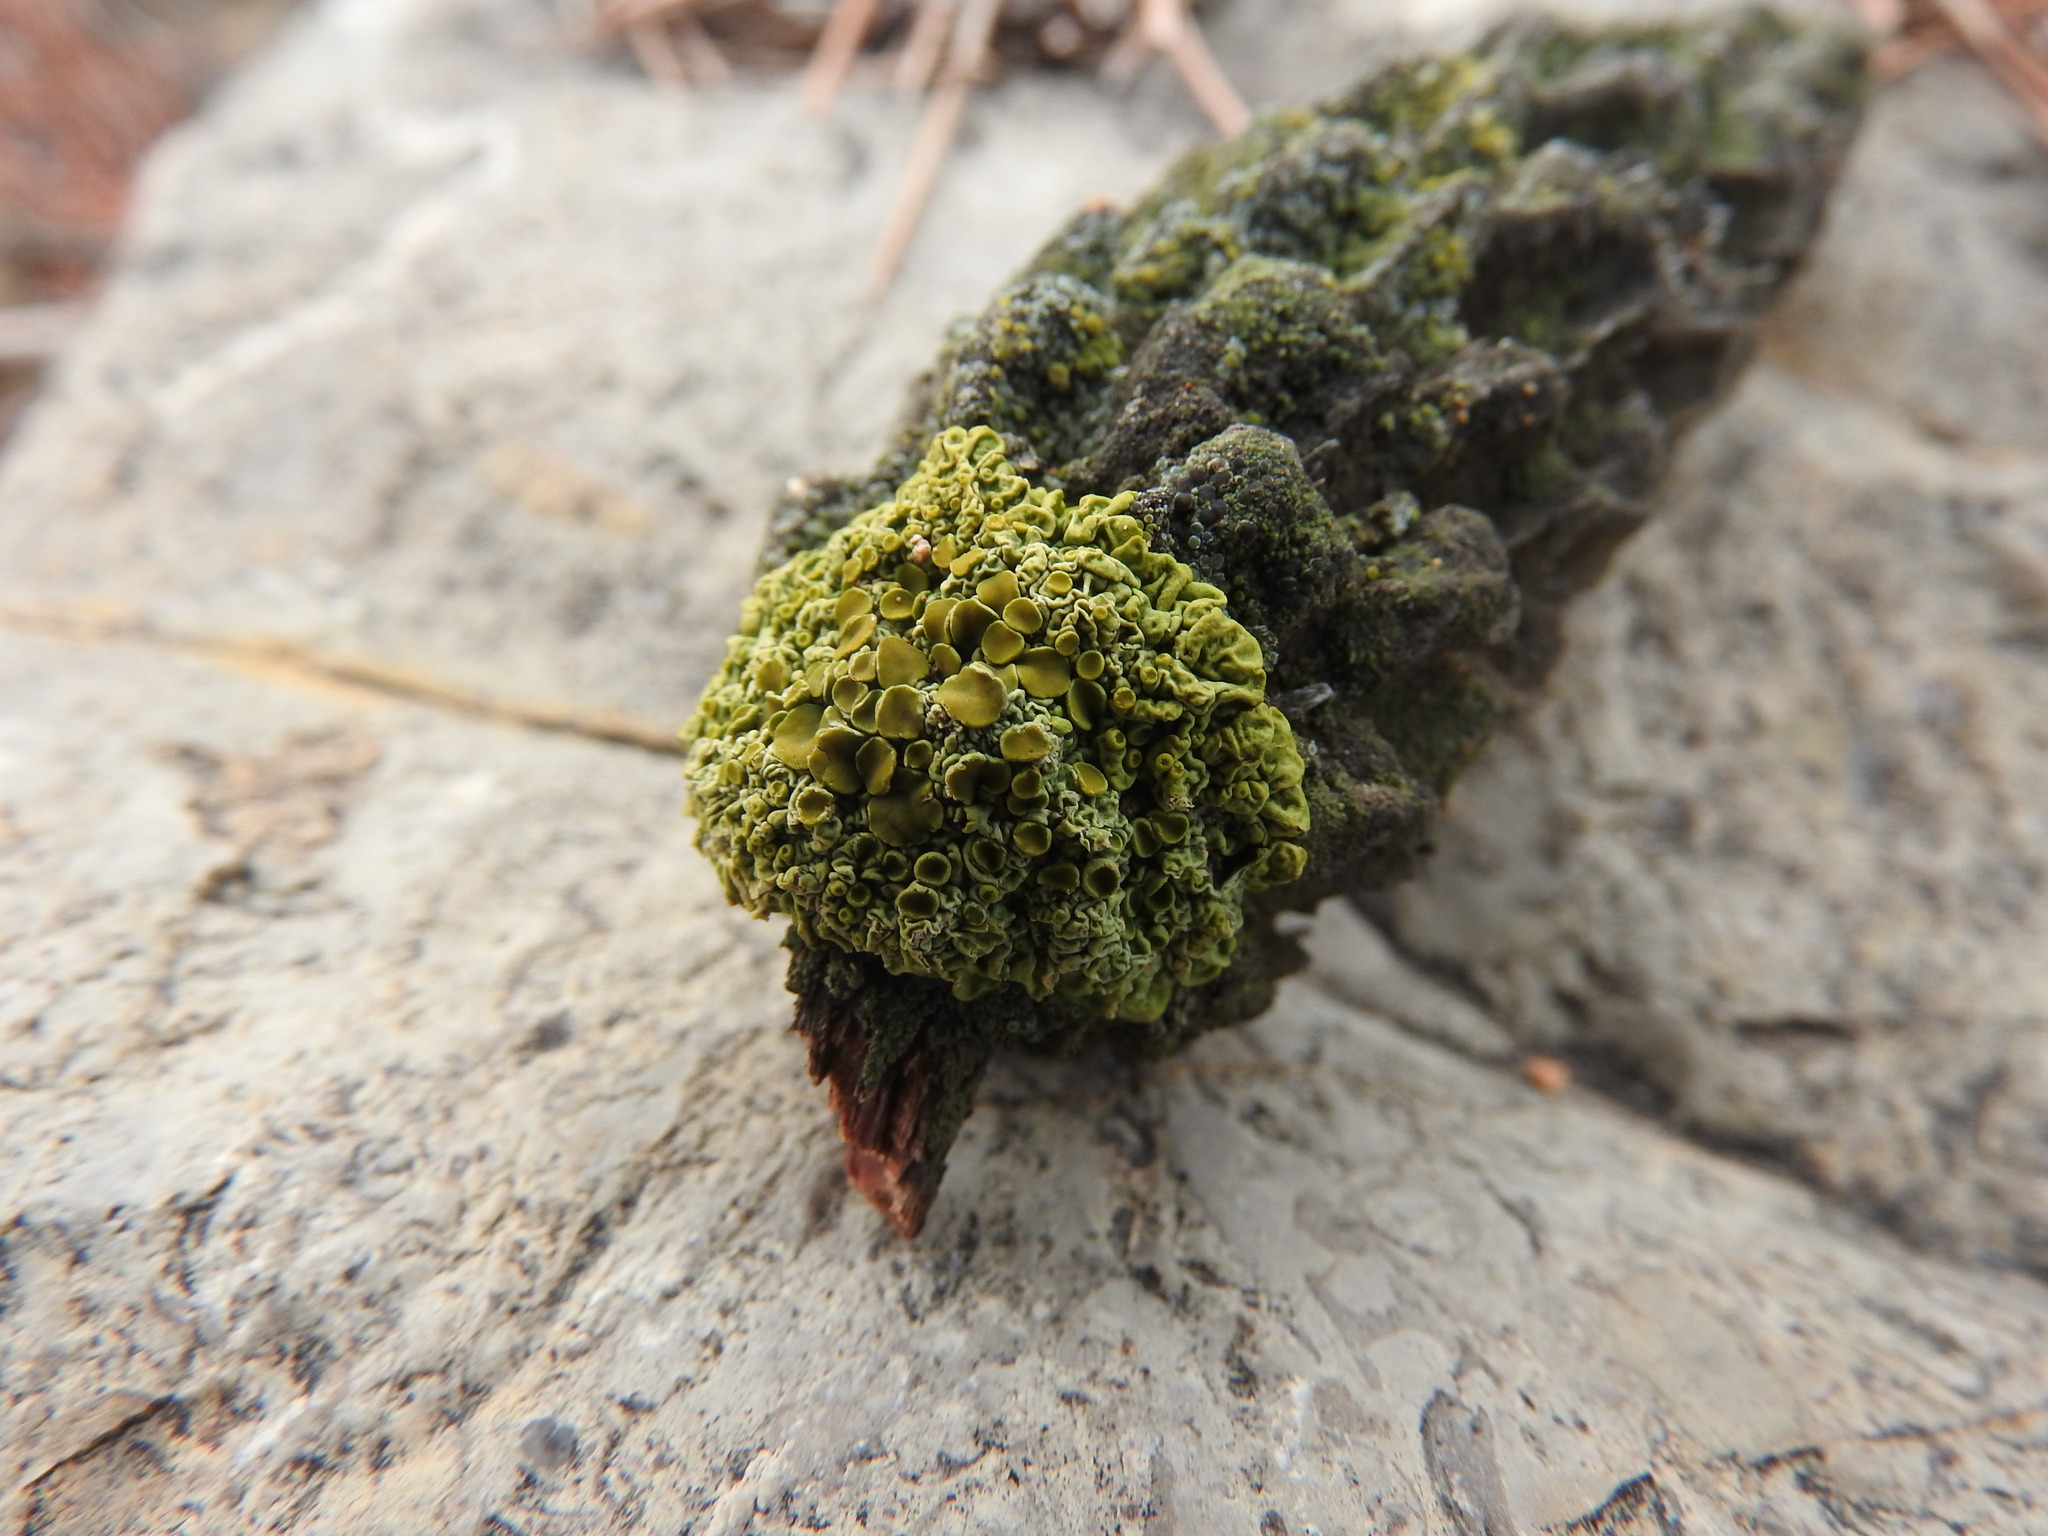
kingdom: Fungi
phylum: Ascomycota
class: Lecanoromycetes
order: Teloschistales
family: Teloschistaceae
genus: Xanthoria
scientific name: Xanthoria parietina
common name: Common orange lichen
